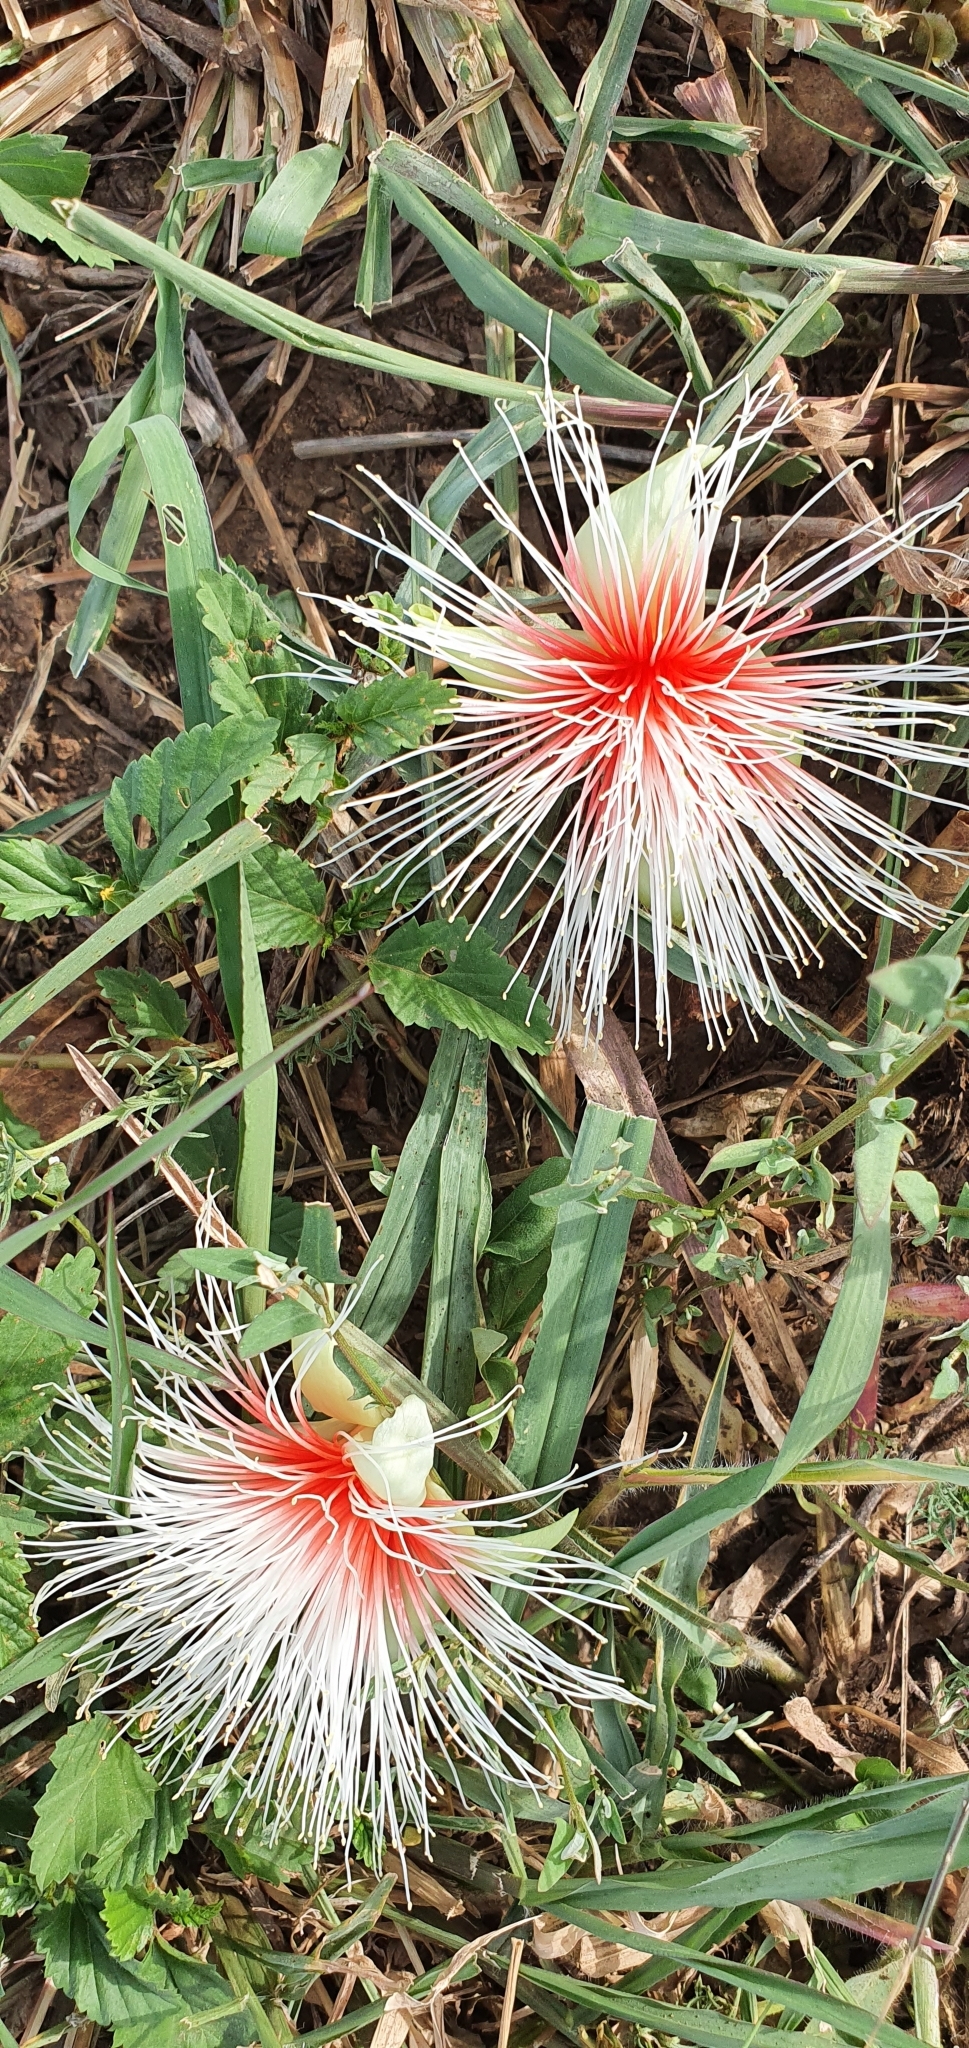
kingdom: Plantae
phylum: Tracheophyta
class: Magnoliopsida
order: Ericales
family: Lecythidaceae
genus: Planchonia
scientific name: Planchonia careya
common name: Cockatoo-apple
